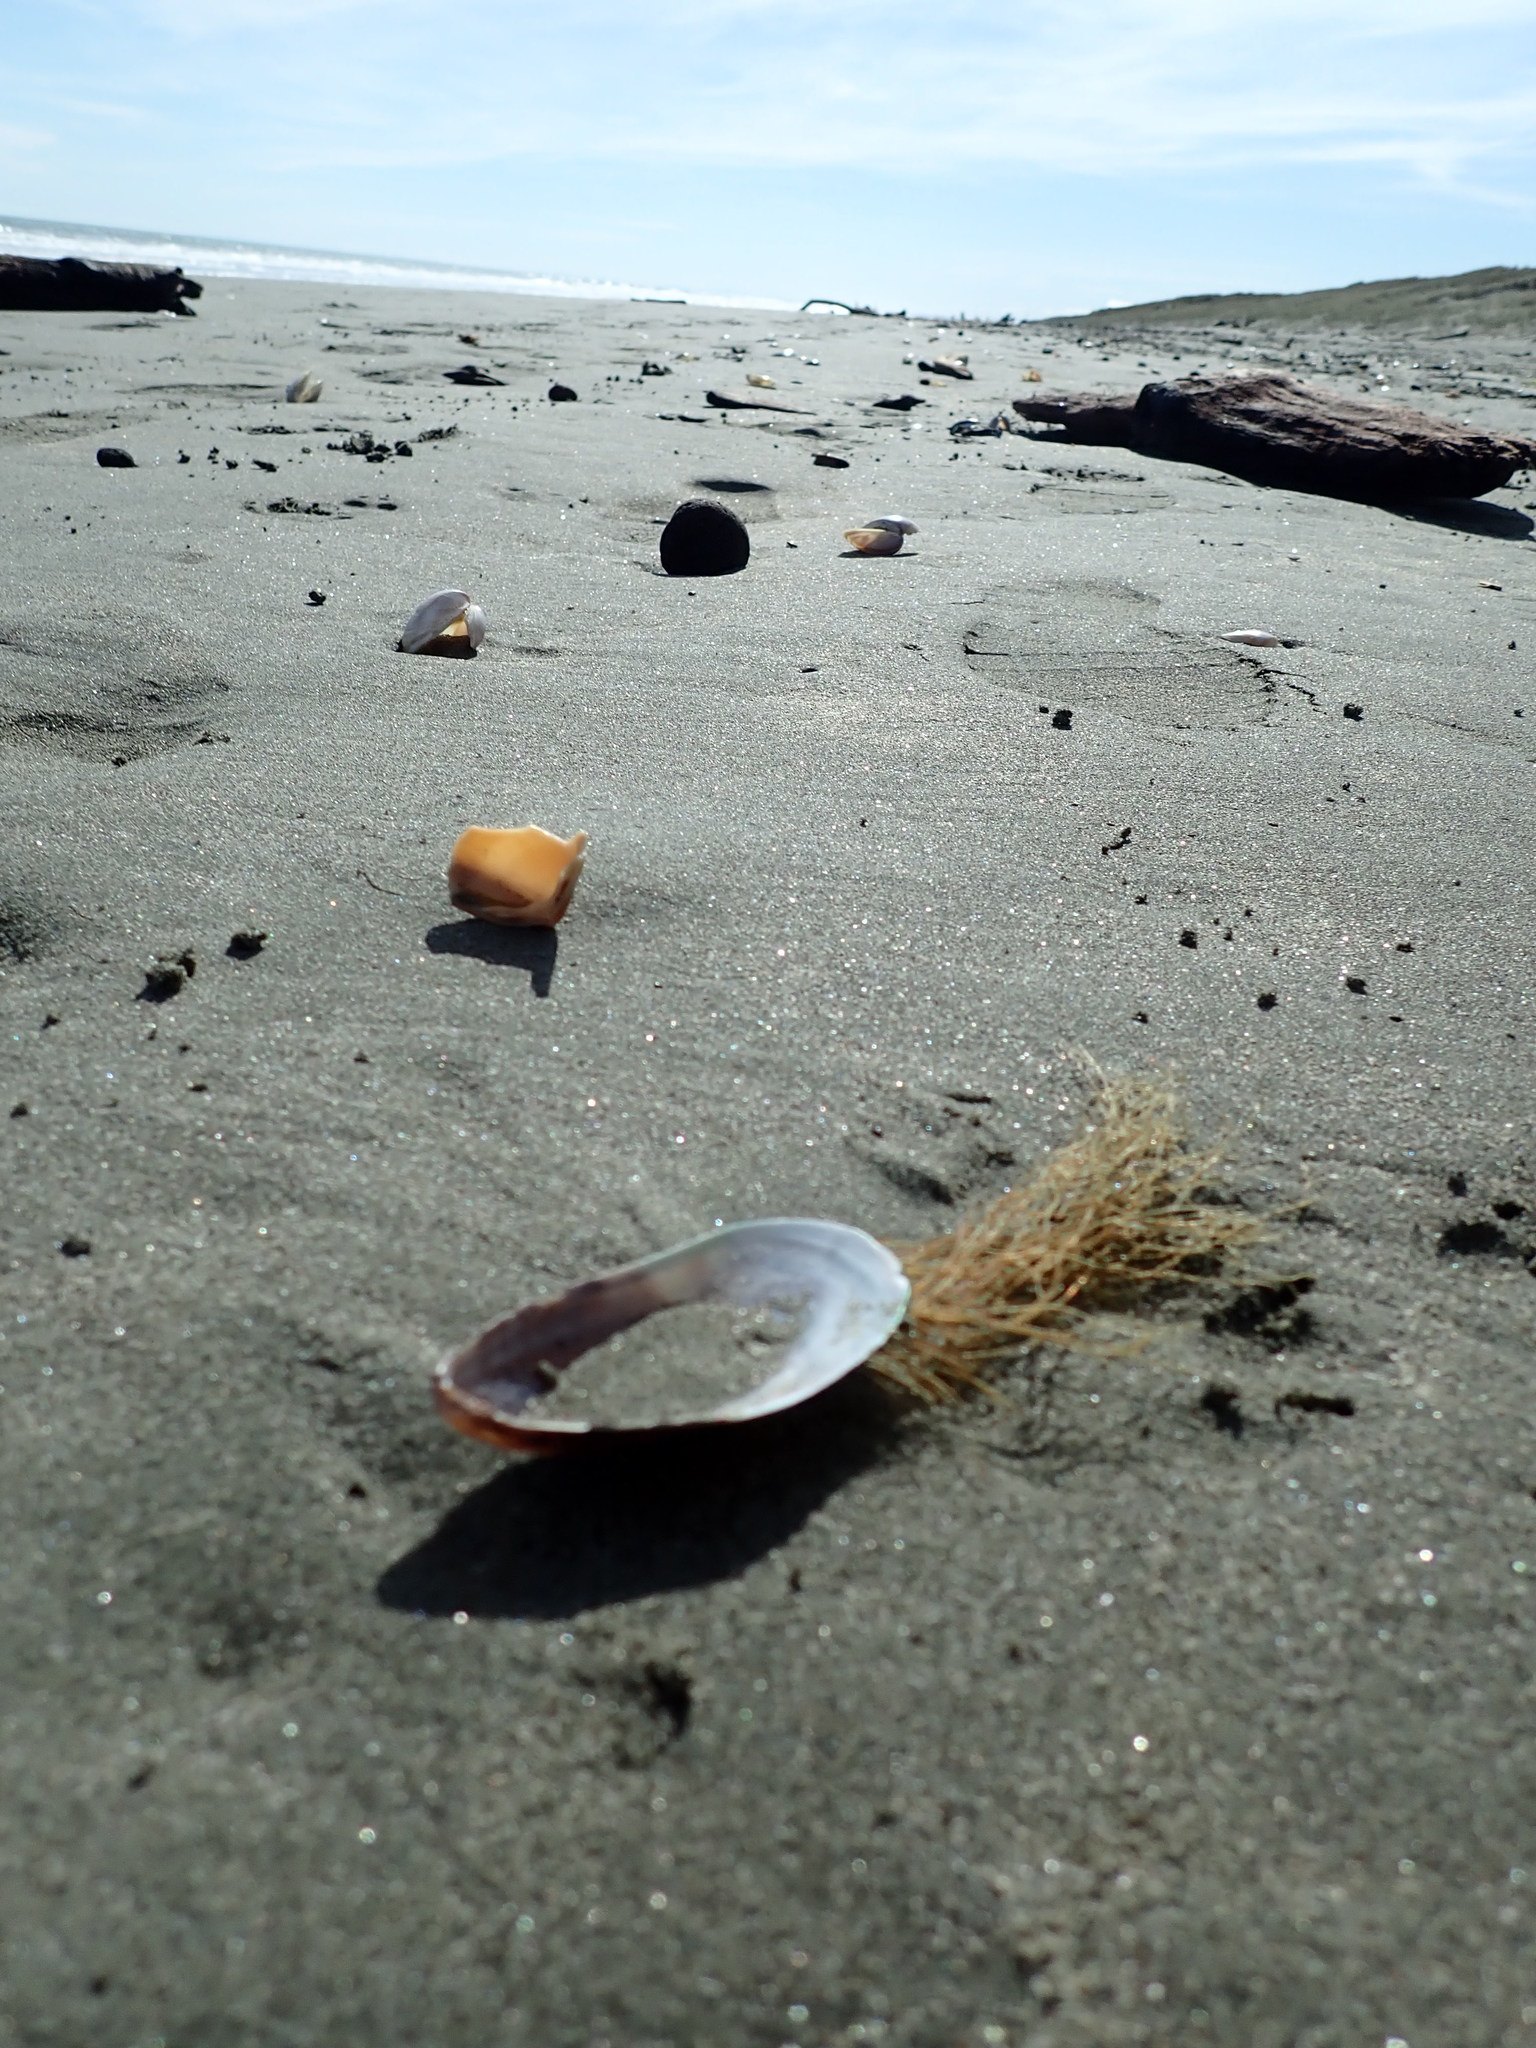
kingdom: Animalia
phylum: Cnidaria
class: Hydrozoa
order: Leptothecata
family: Sertulariidae
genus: Amphisbetia
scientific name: Amphisbetia bispinosa
